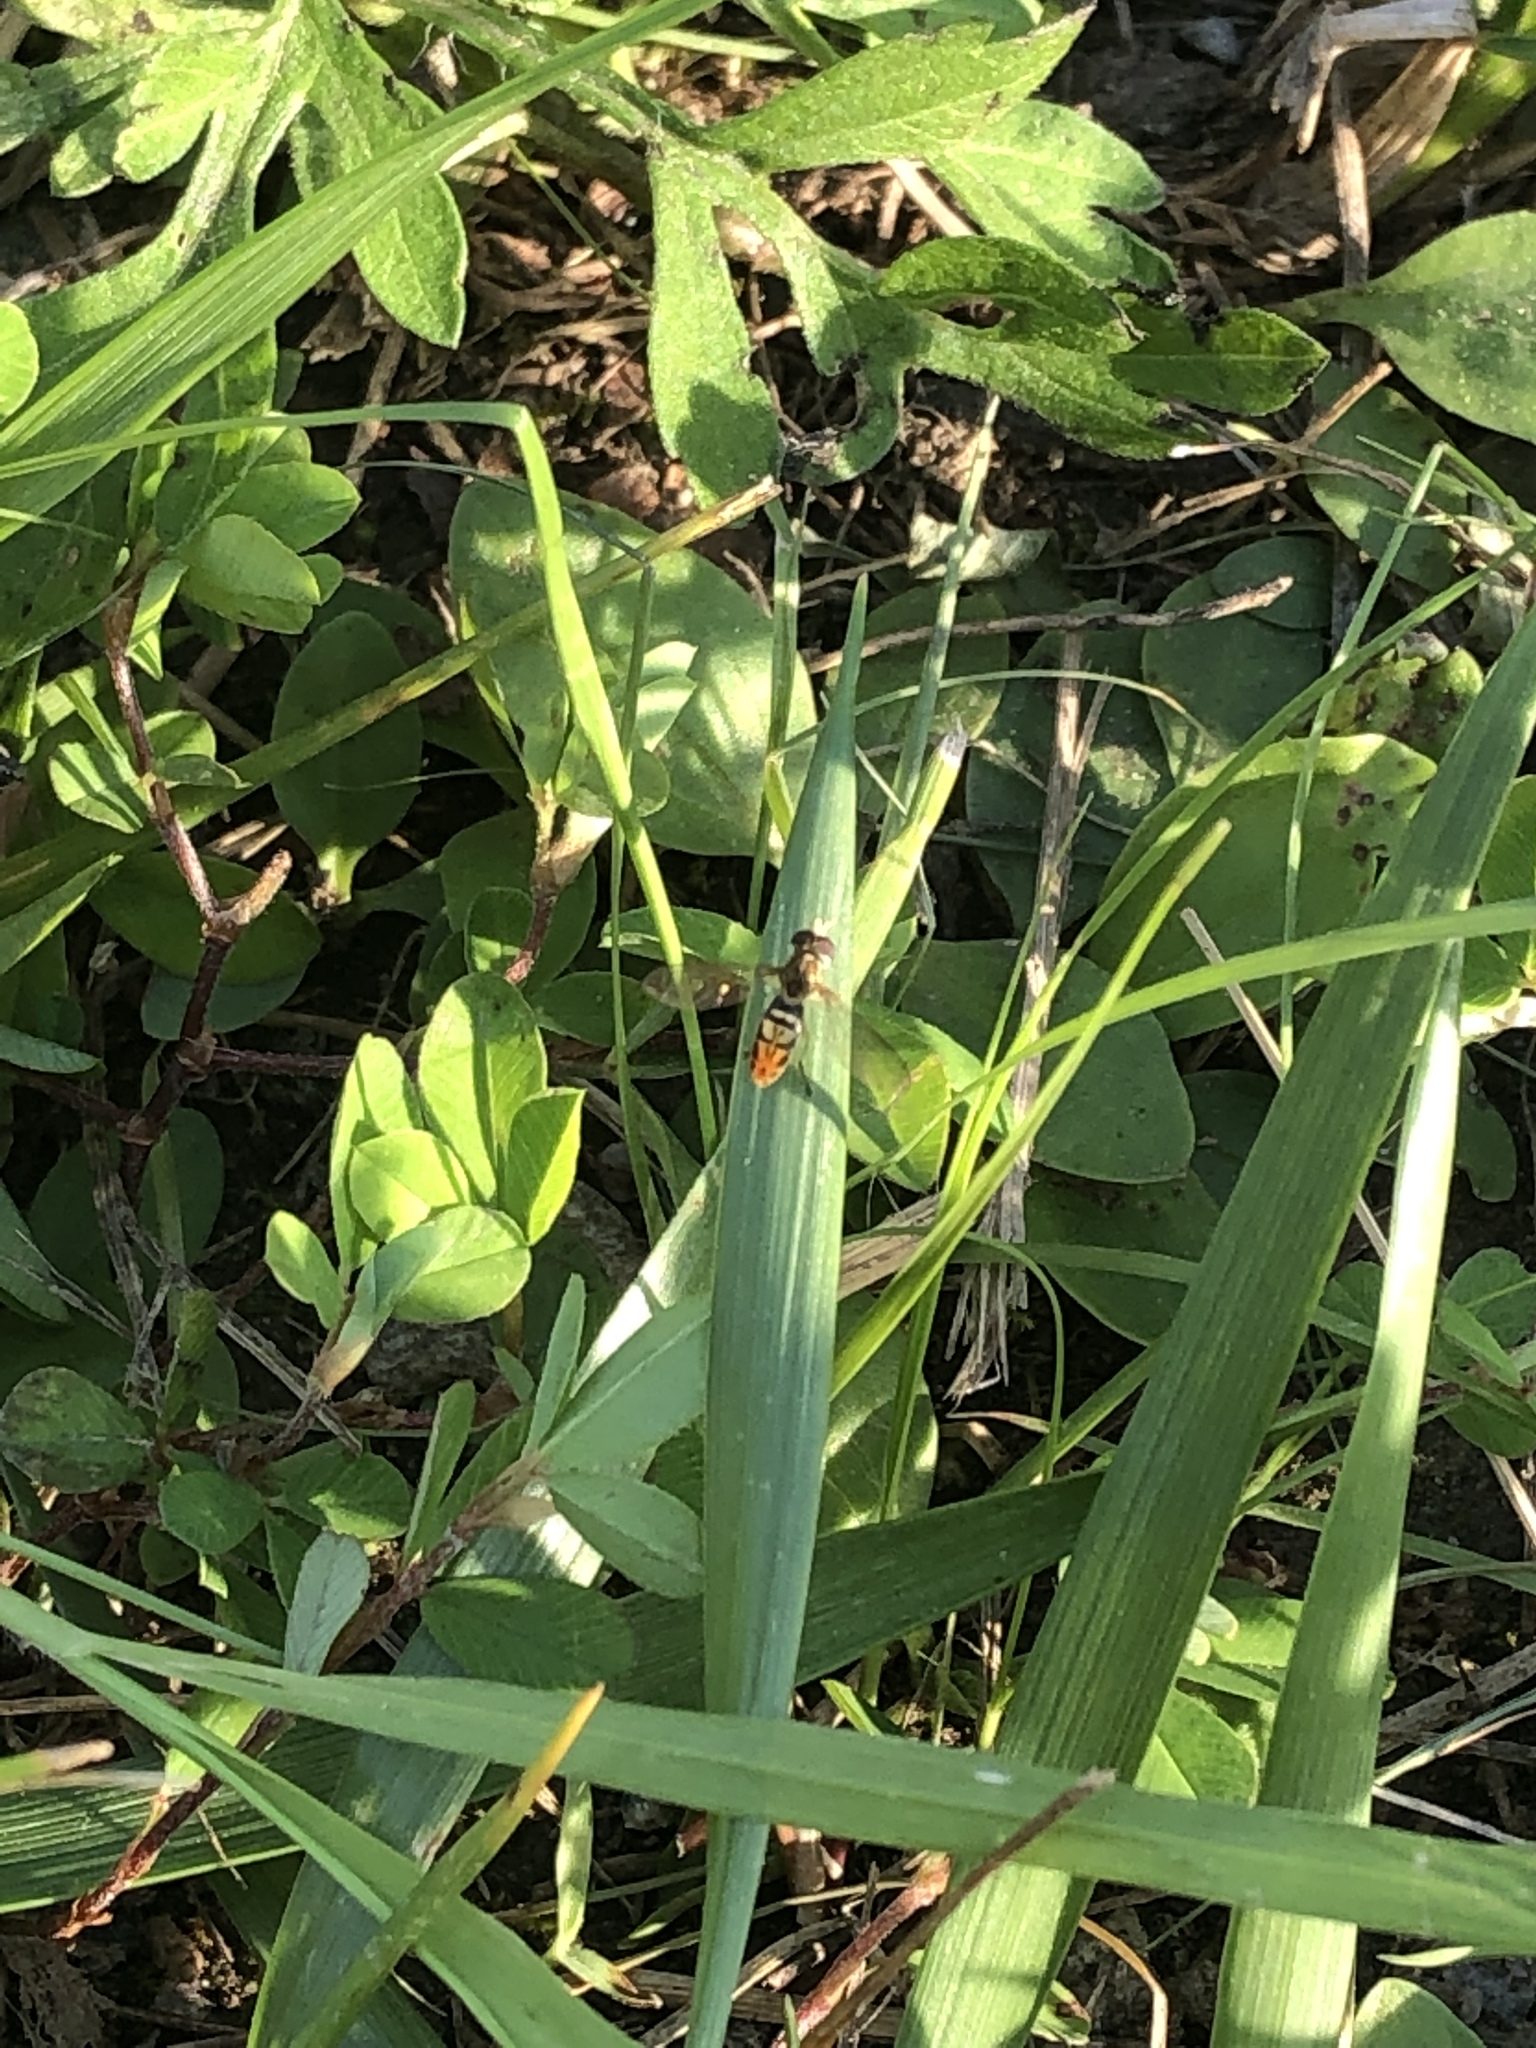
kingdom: Animalia
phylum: Arthropoda
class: Insecta
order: Diptera
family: Syrphidae
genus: Toxomerus
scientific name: Toxomerus marginatus
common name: Syrphid fly
